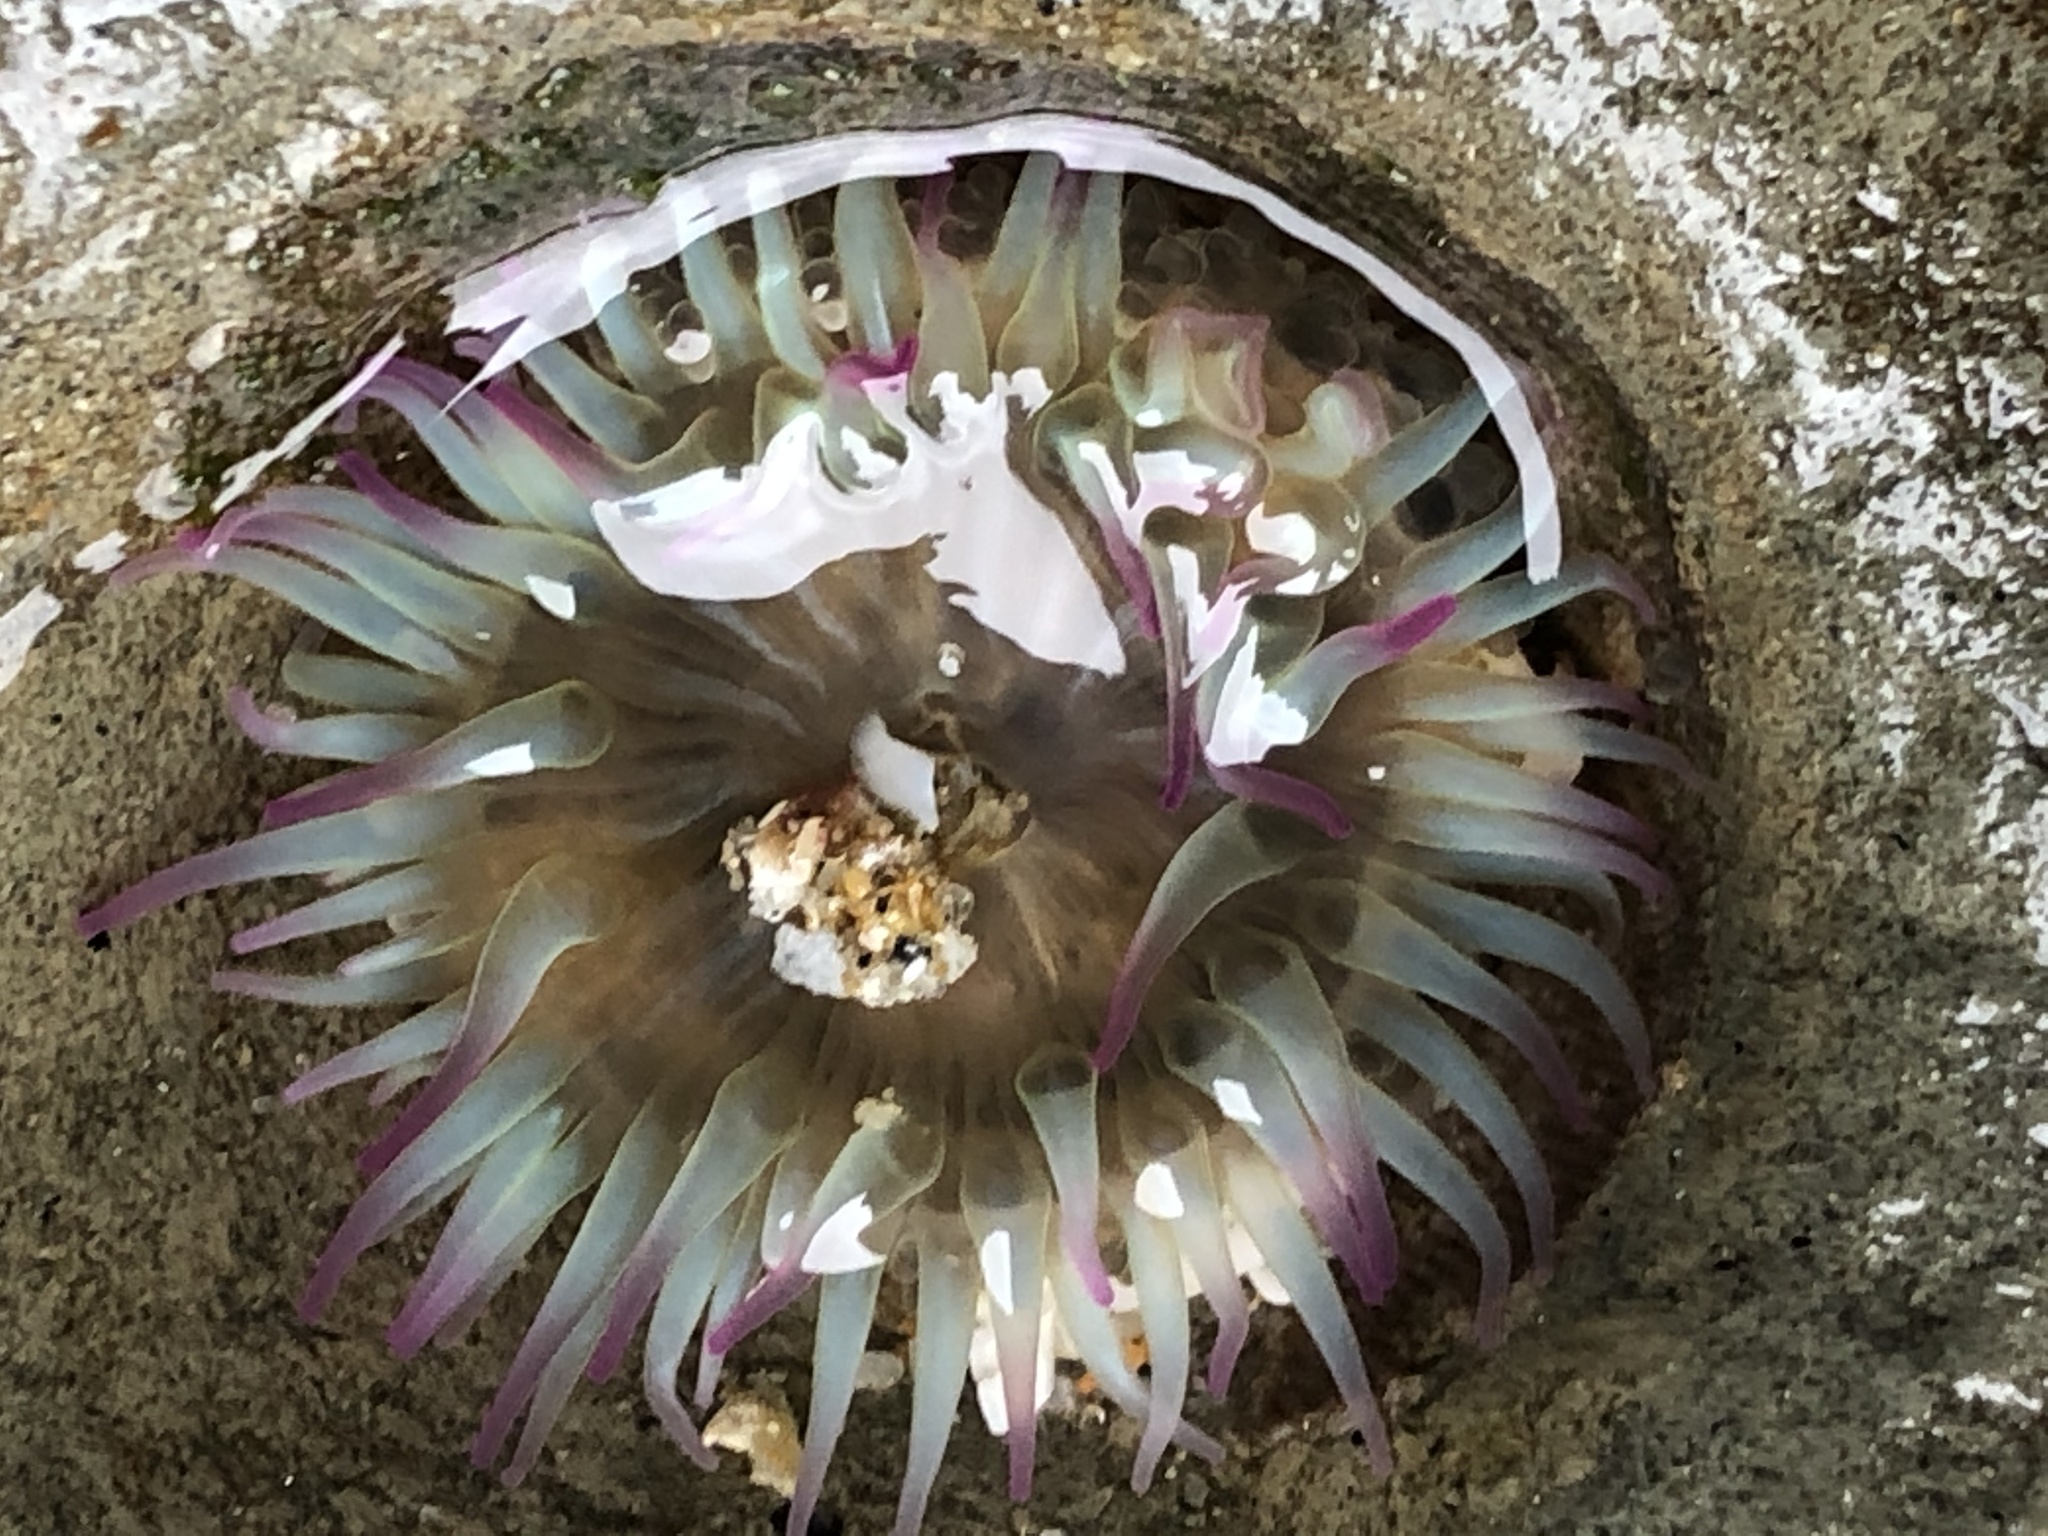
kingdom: Animalia
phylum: Cnidaria
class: Anthozoa
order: Actiniaria
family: Actiniidae
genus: Anthopleura
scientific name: Anthopleura elegantissima
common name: Clonal anemone
